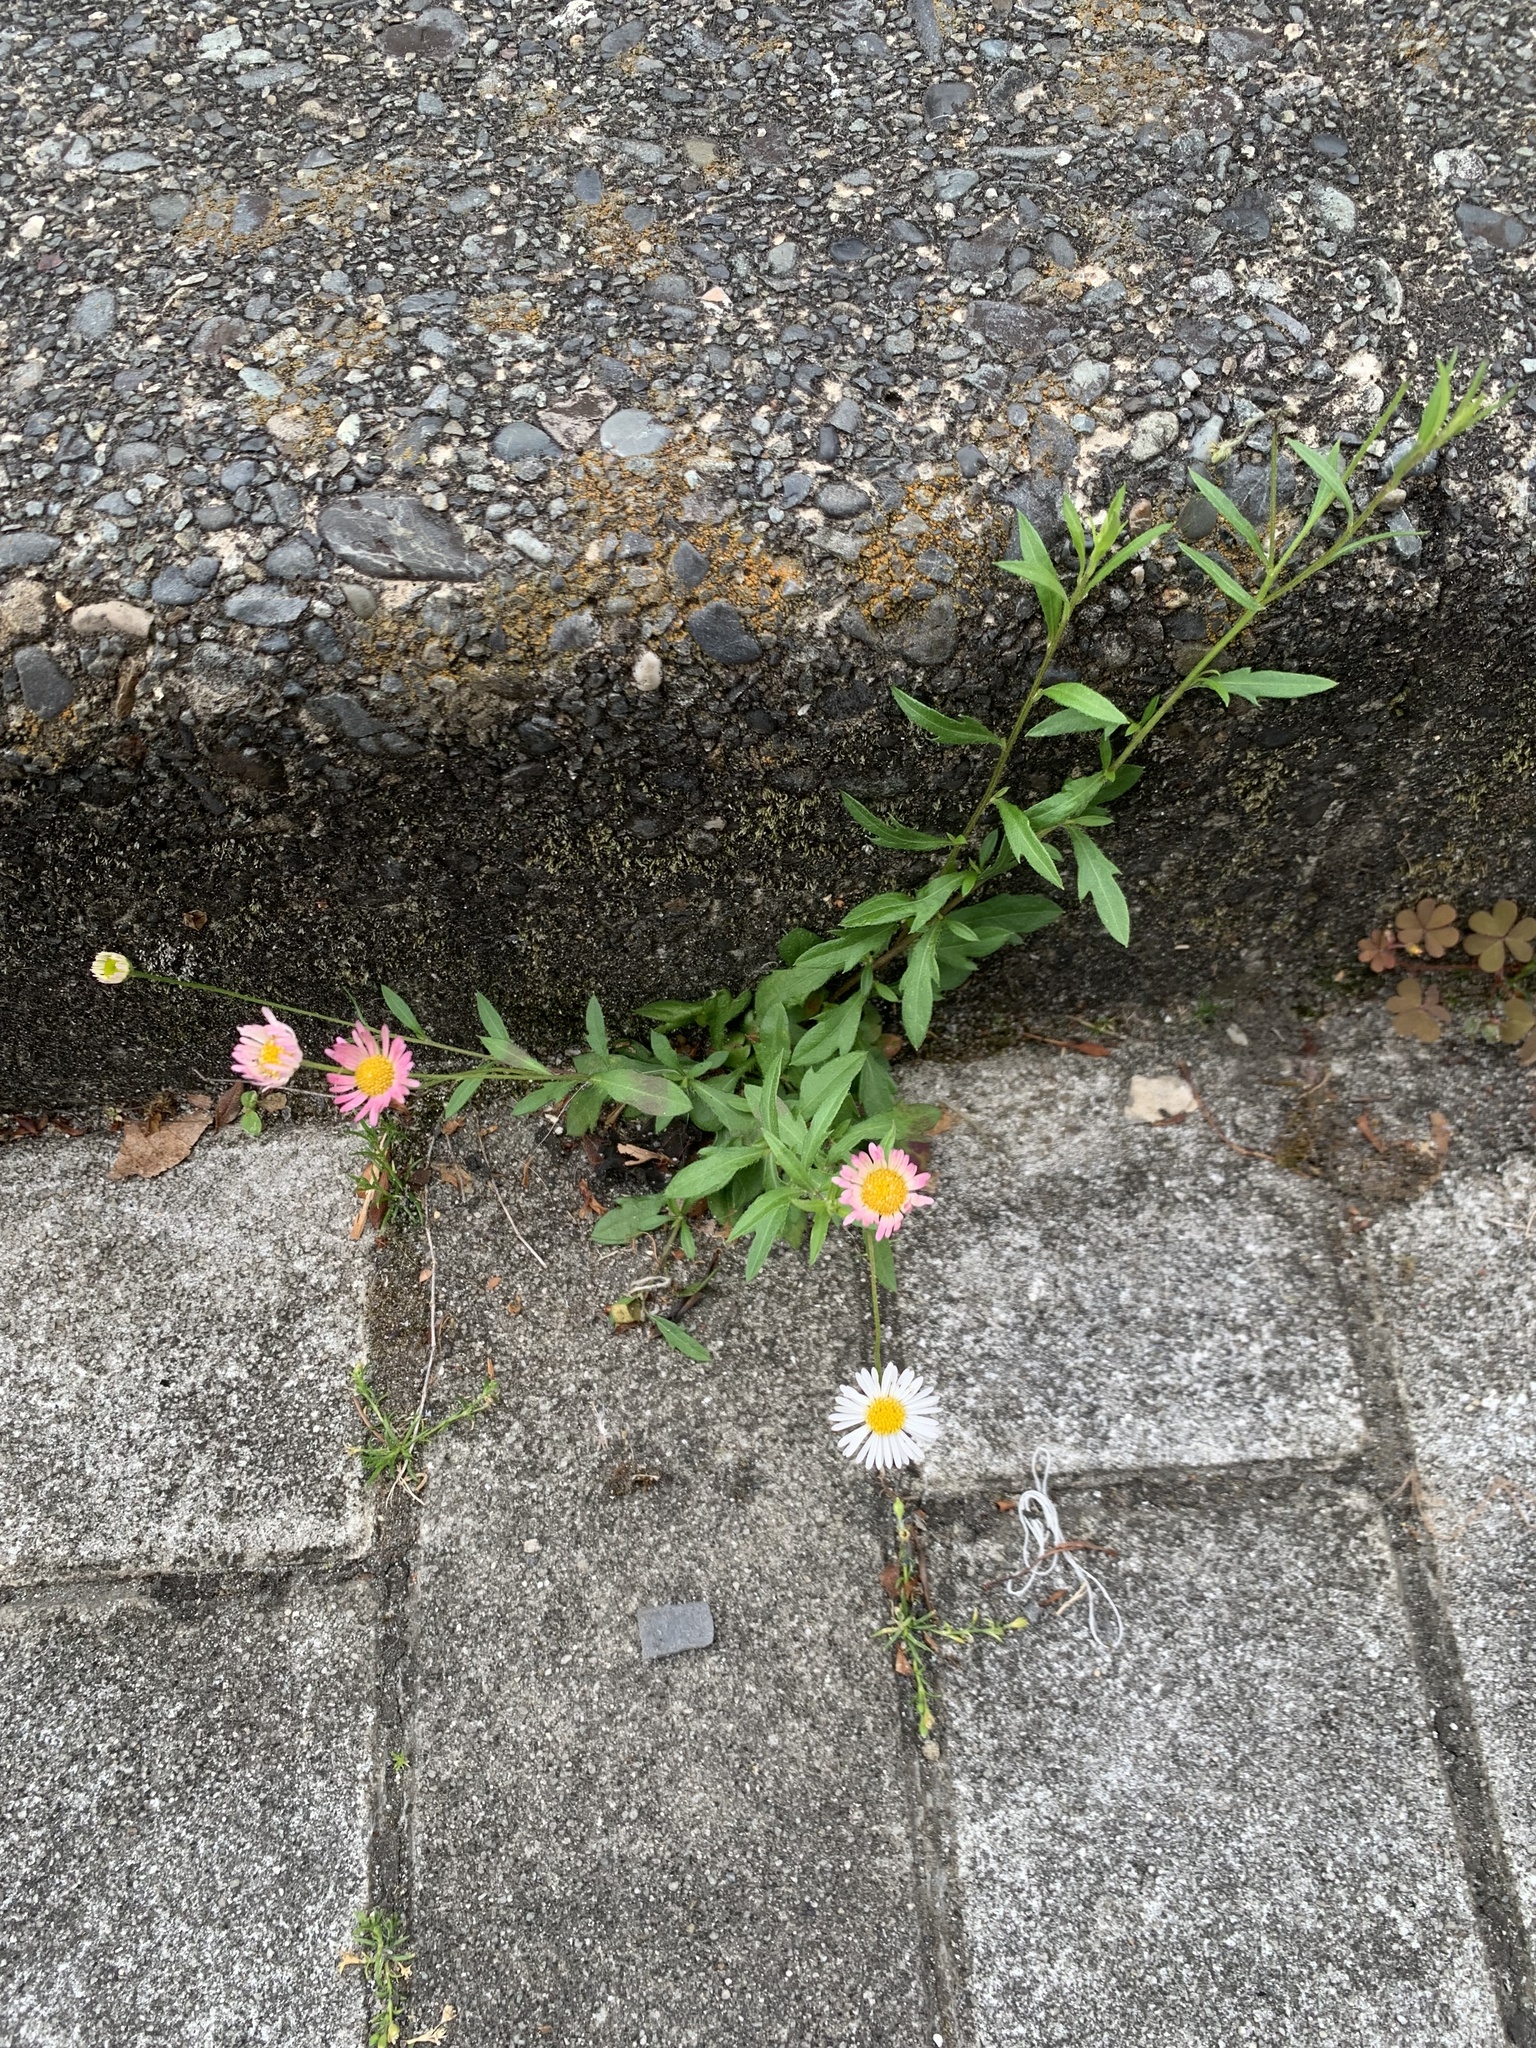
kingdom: Plantae
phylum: Tracheophyta
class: Magnoliopsida
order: Asterales
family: Asteraceae
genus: Erigeron
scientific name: Erigeron karvinskianus
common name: Mexican fleabane
